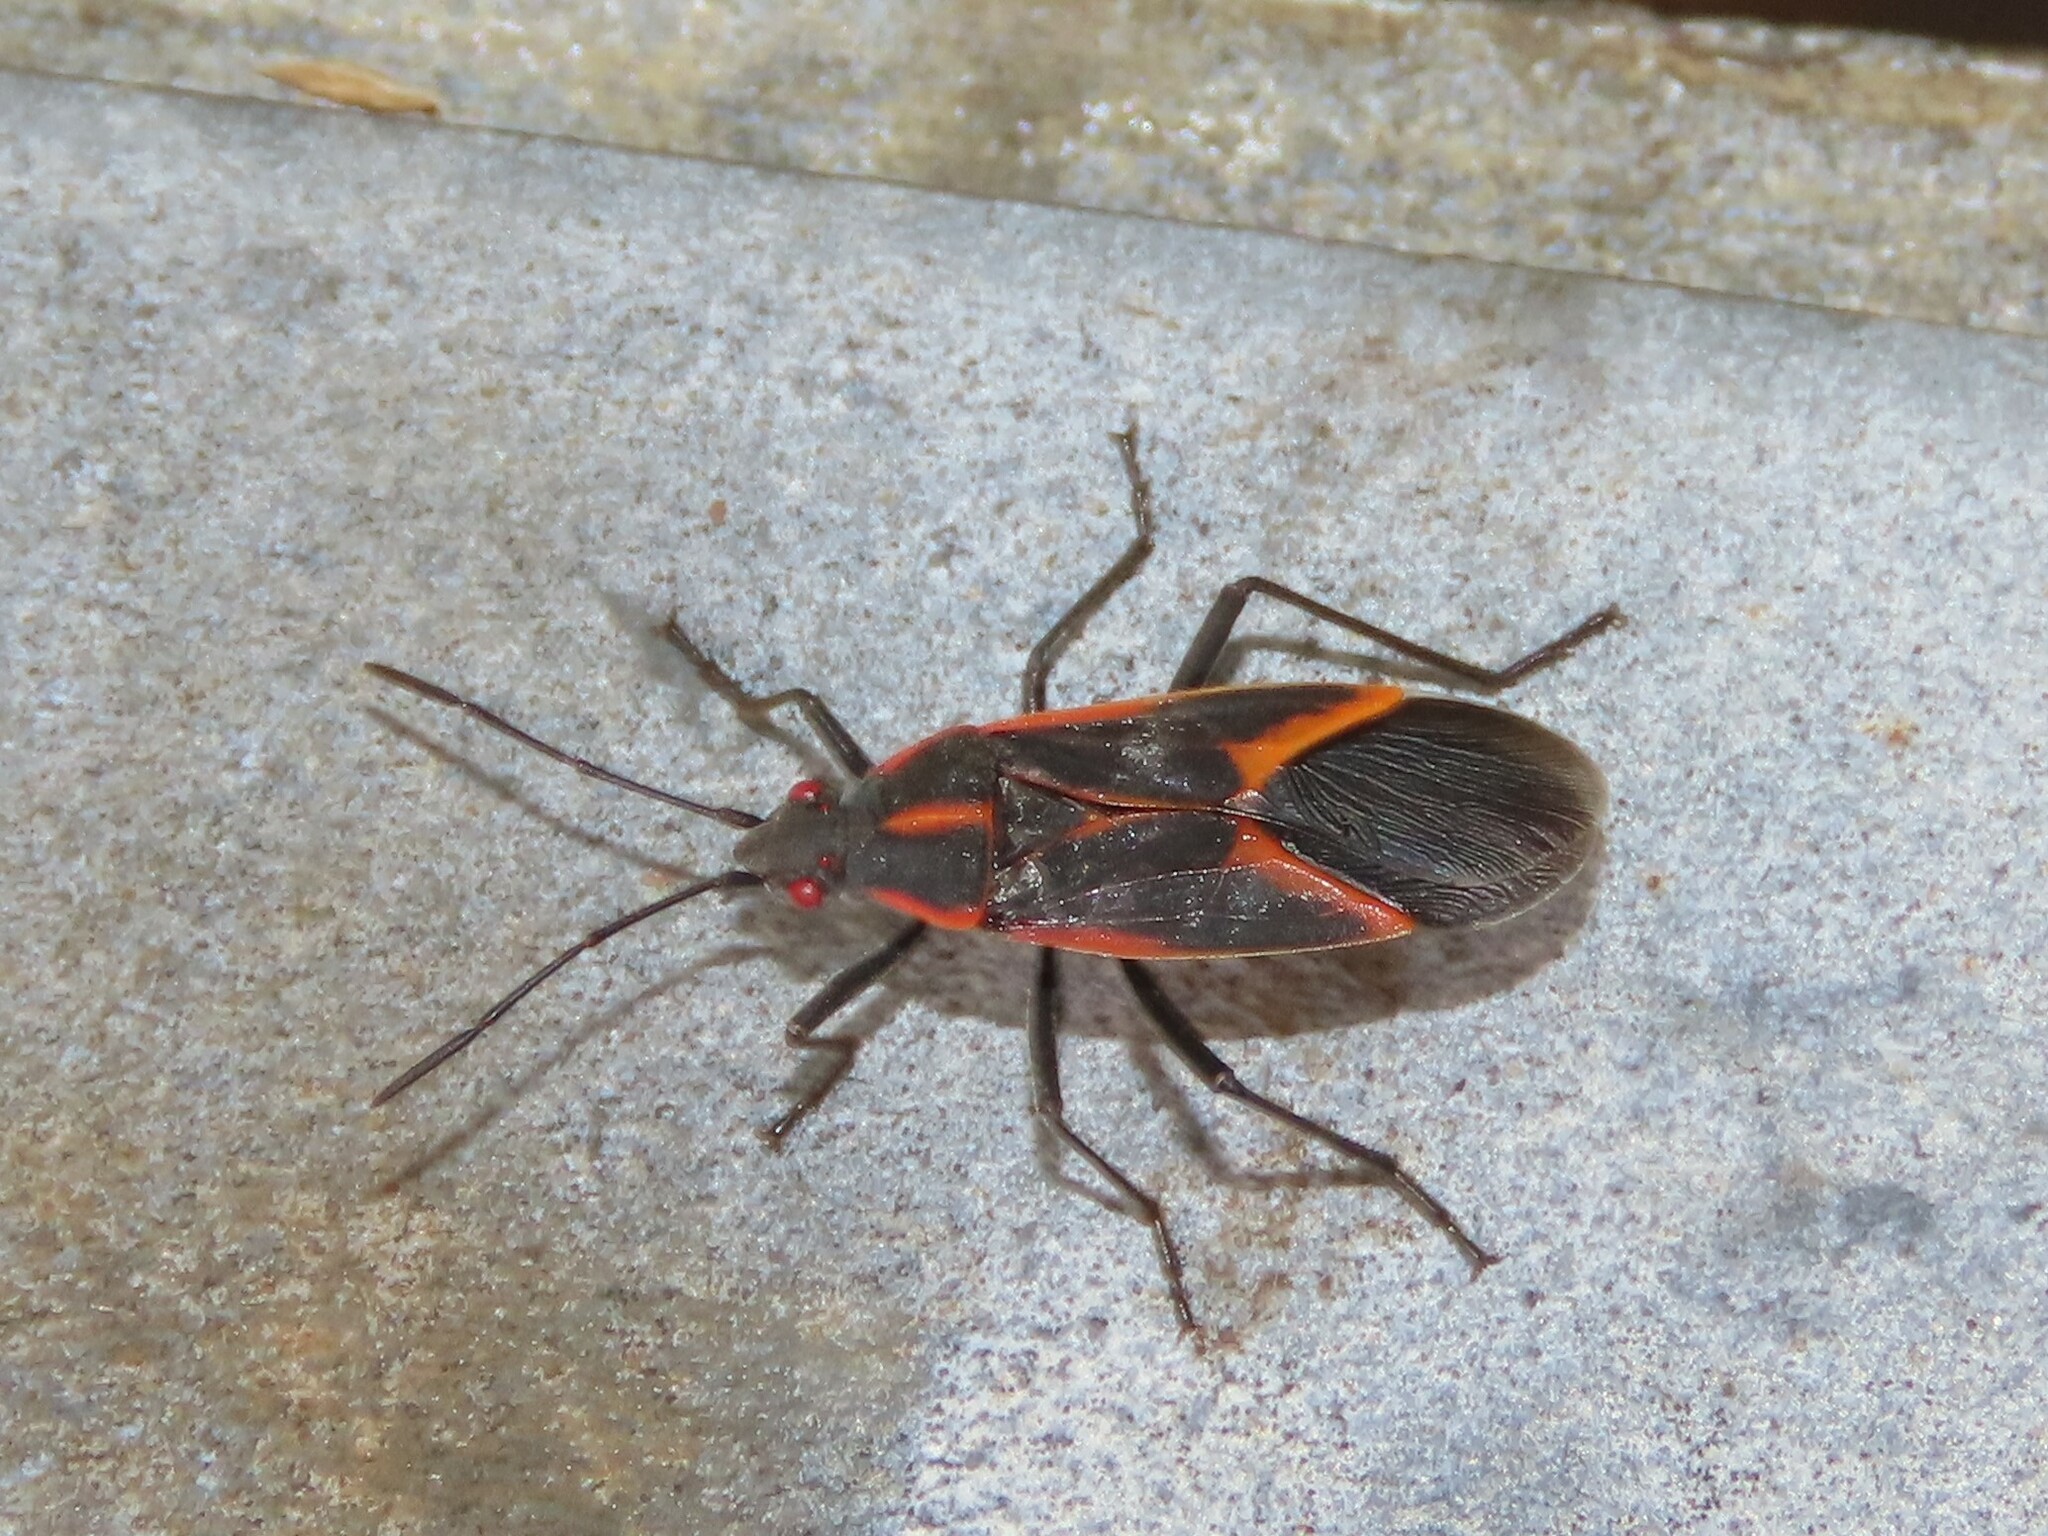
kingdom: Animalia
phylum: Arthropoda
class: Insecta
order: Hemiptera
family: Rhopalidae
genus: Boisea
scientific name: Boisea trivittata
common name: Boxelder bug
